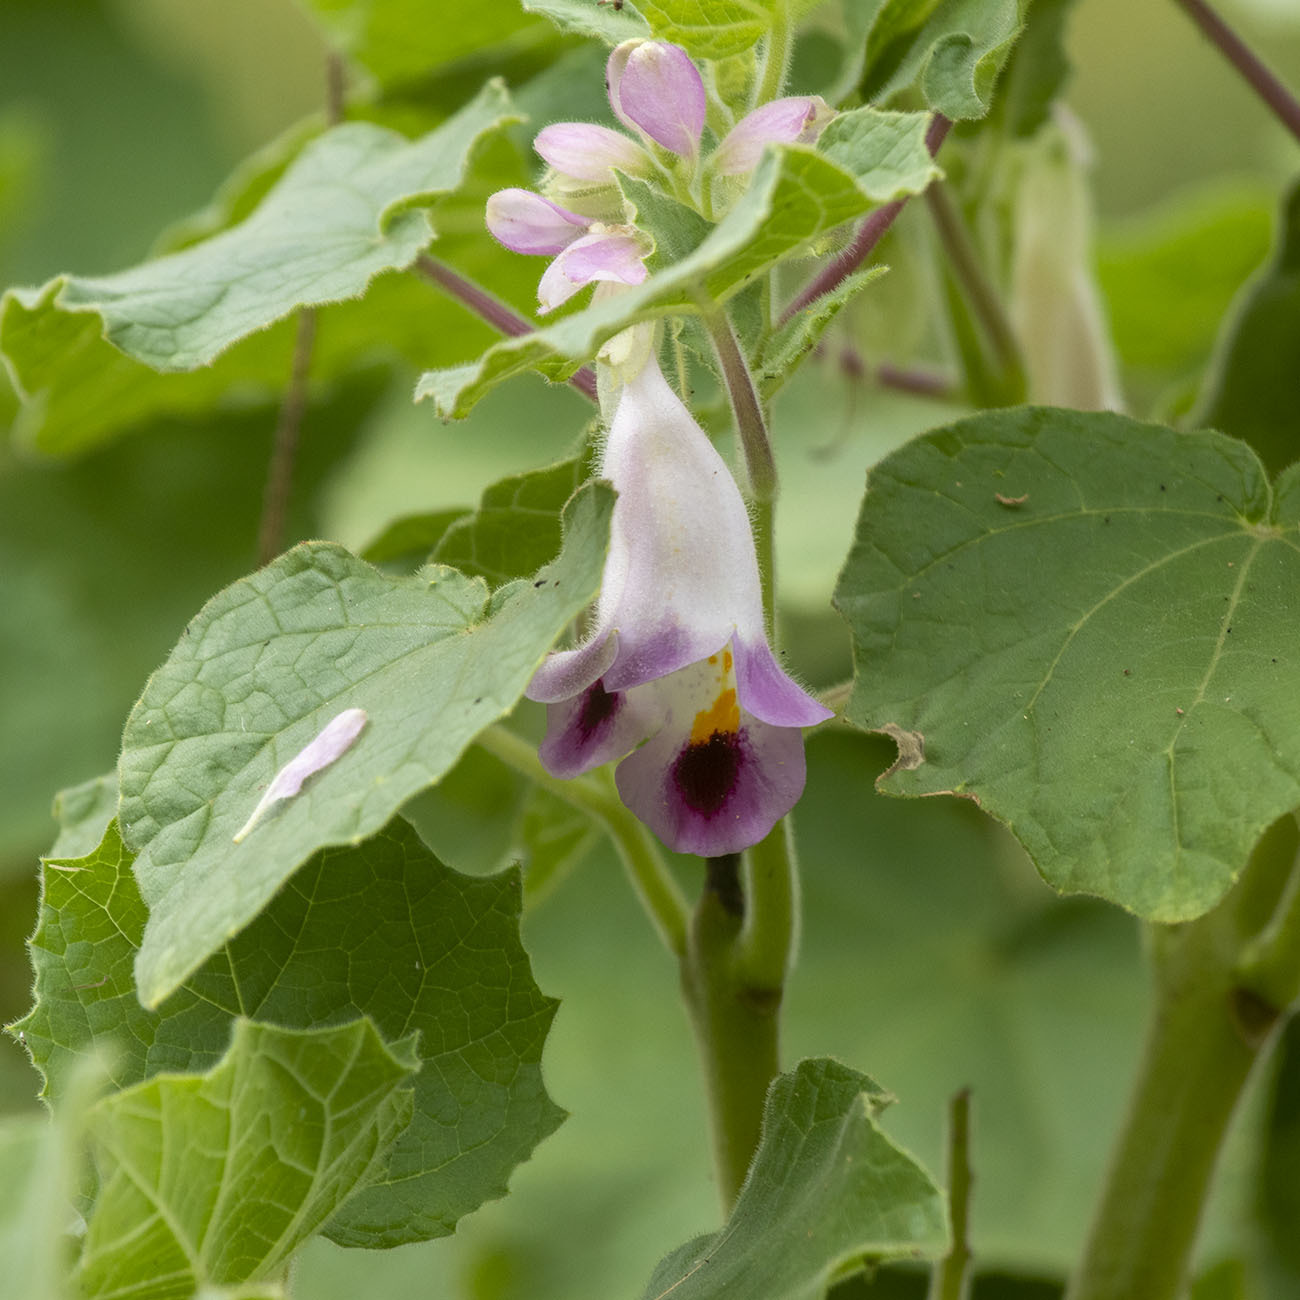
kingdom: Plantae
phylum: Tracheophyta
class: Magnoliopsida
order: Lamiales
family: Martyniaceae
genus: Martynia
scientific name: Martynia annua
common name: Tiger's-claw
